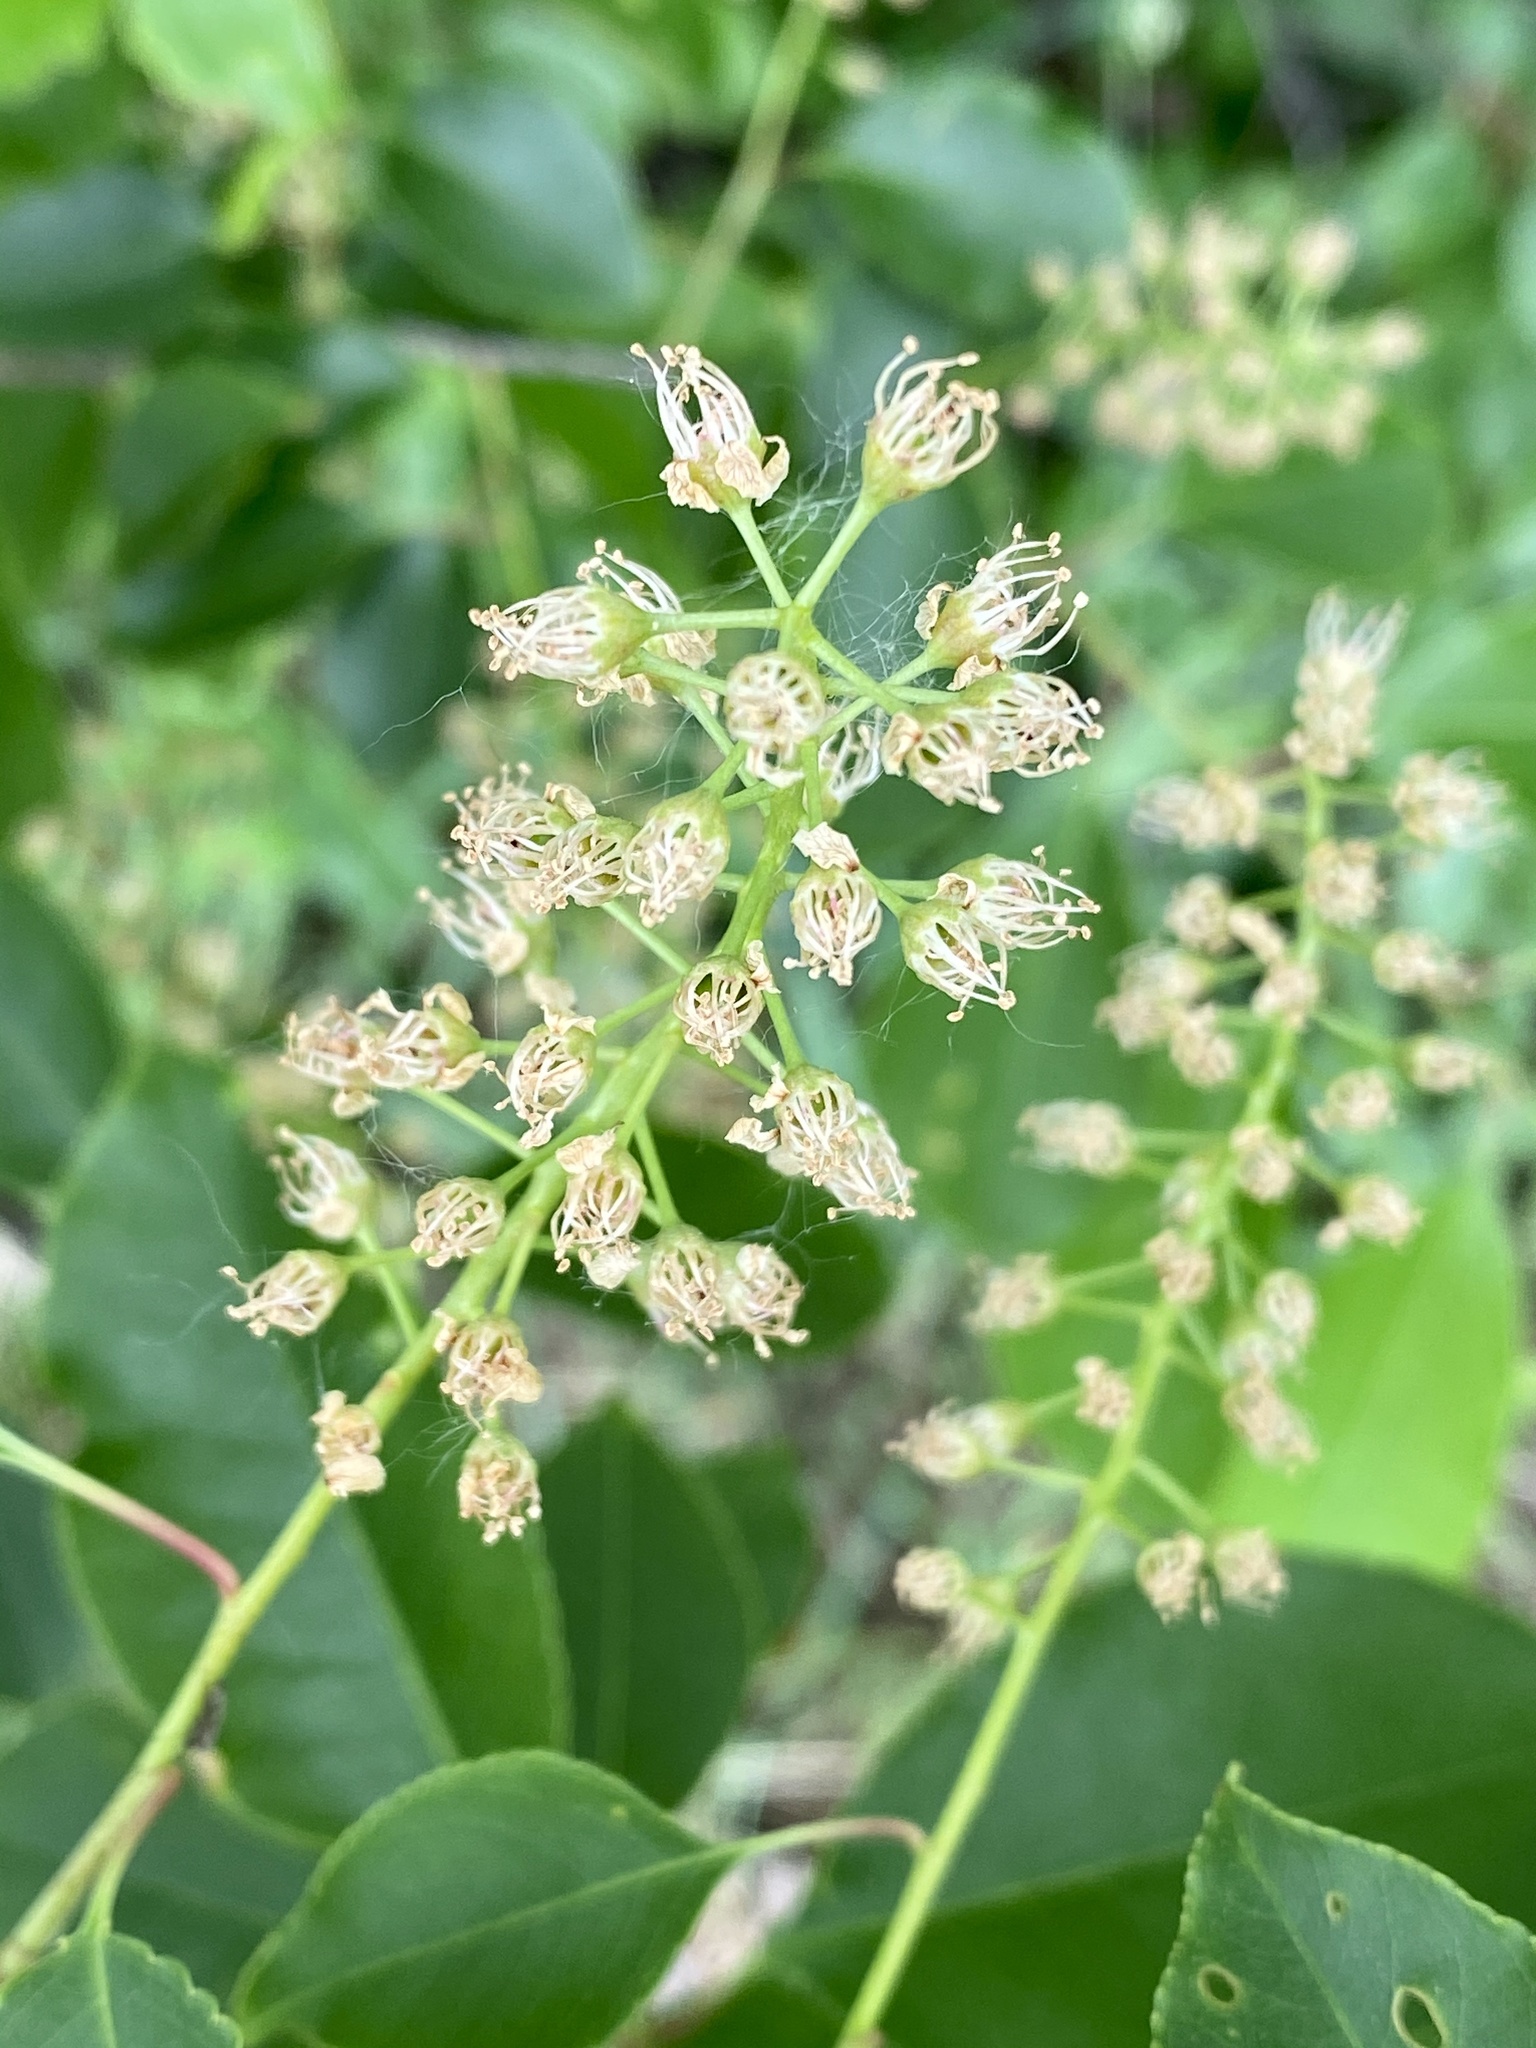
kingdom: Plantae
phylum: Tracheophyta
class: Magnoliopsida
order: Rosales
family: Rosaceae
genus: Prunus
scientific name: Prunus serotina
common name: Black cherry
